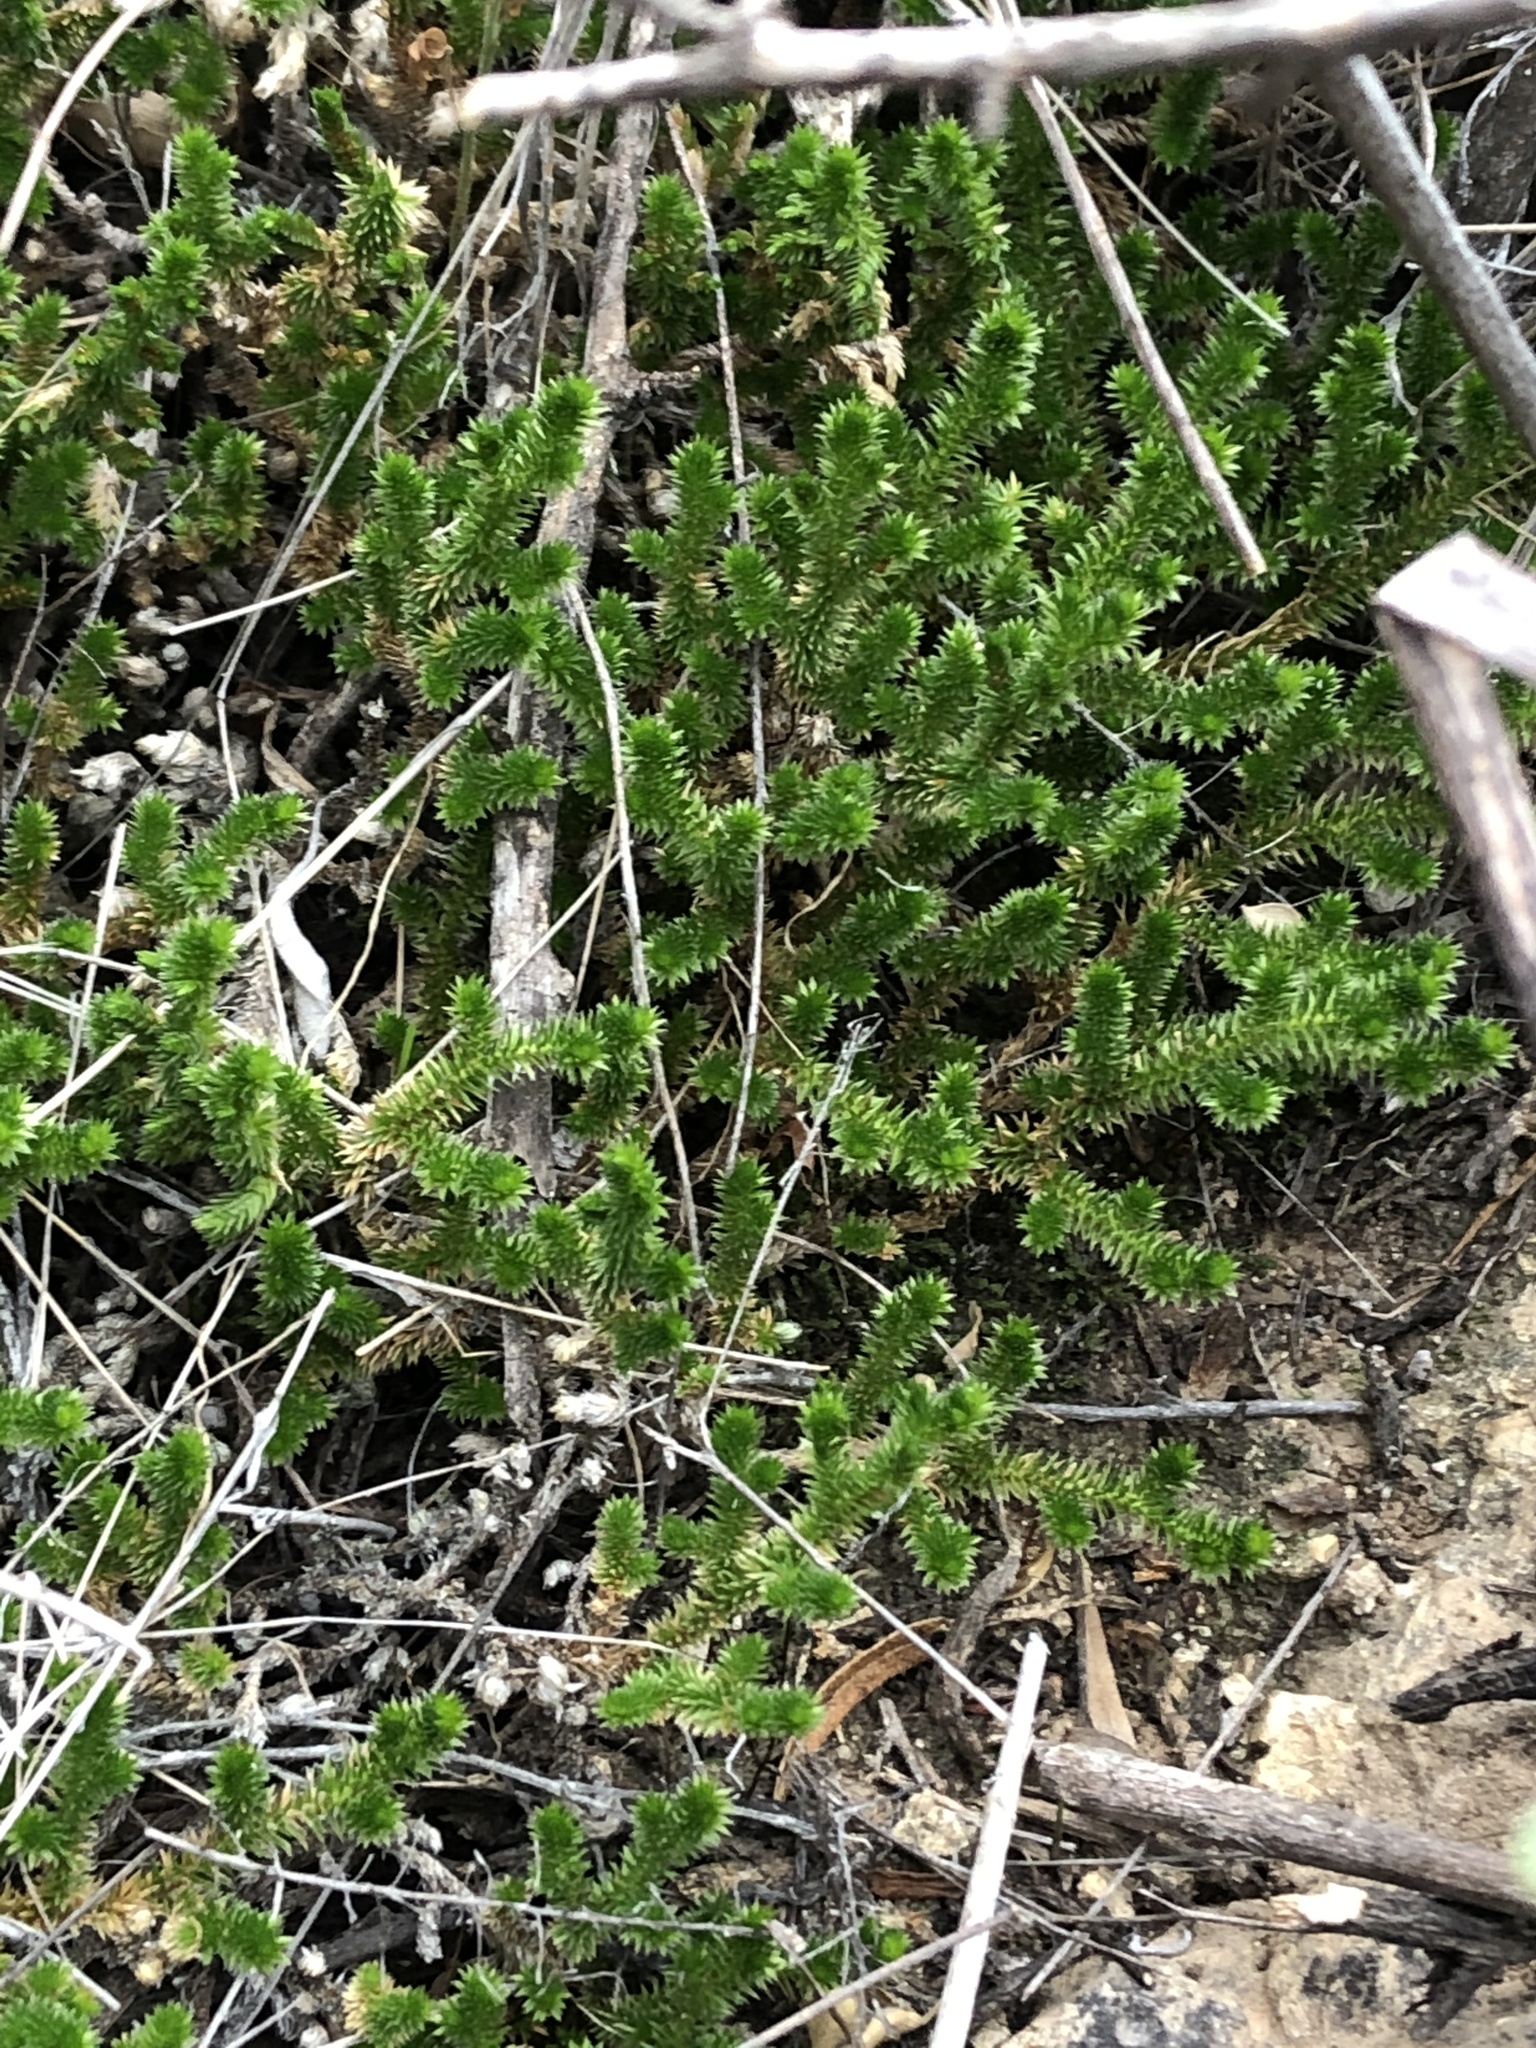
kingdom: Plantae
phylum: Tracheophyta
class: Lycopodiopsida
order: Selaginellales
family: Selaginellaceae
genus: Selaginella
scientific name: Selaginella arizonica
